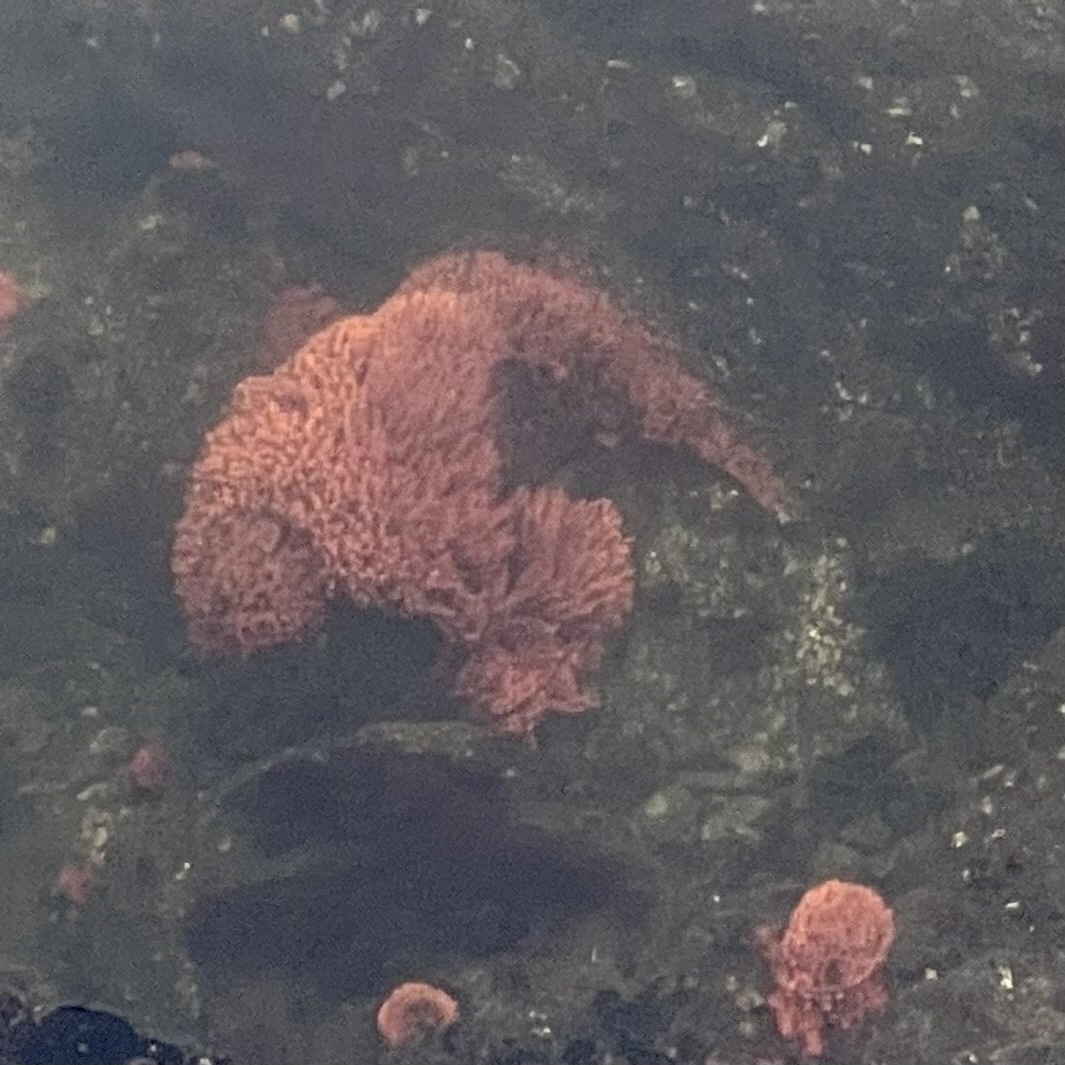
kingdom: Animalia
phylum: Porifera
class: Demospongiae
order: Poecilosclerida
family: Microcionidae
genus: Clathria
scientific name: Clathria prolifera
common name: Red beard sponge
